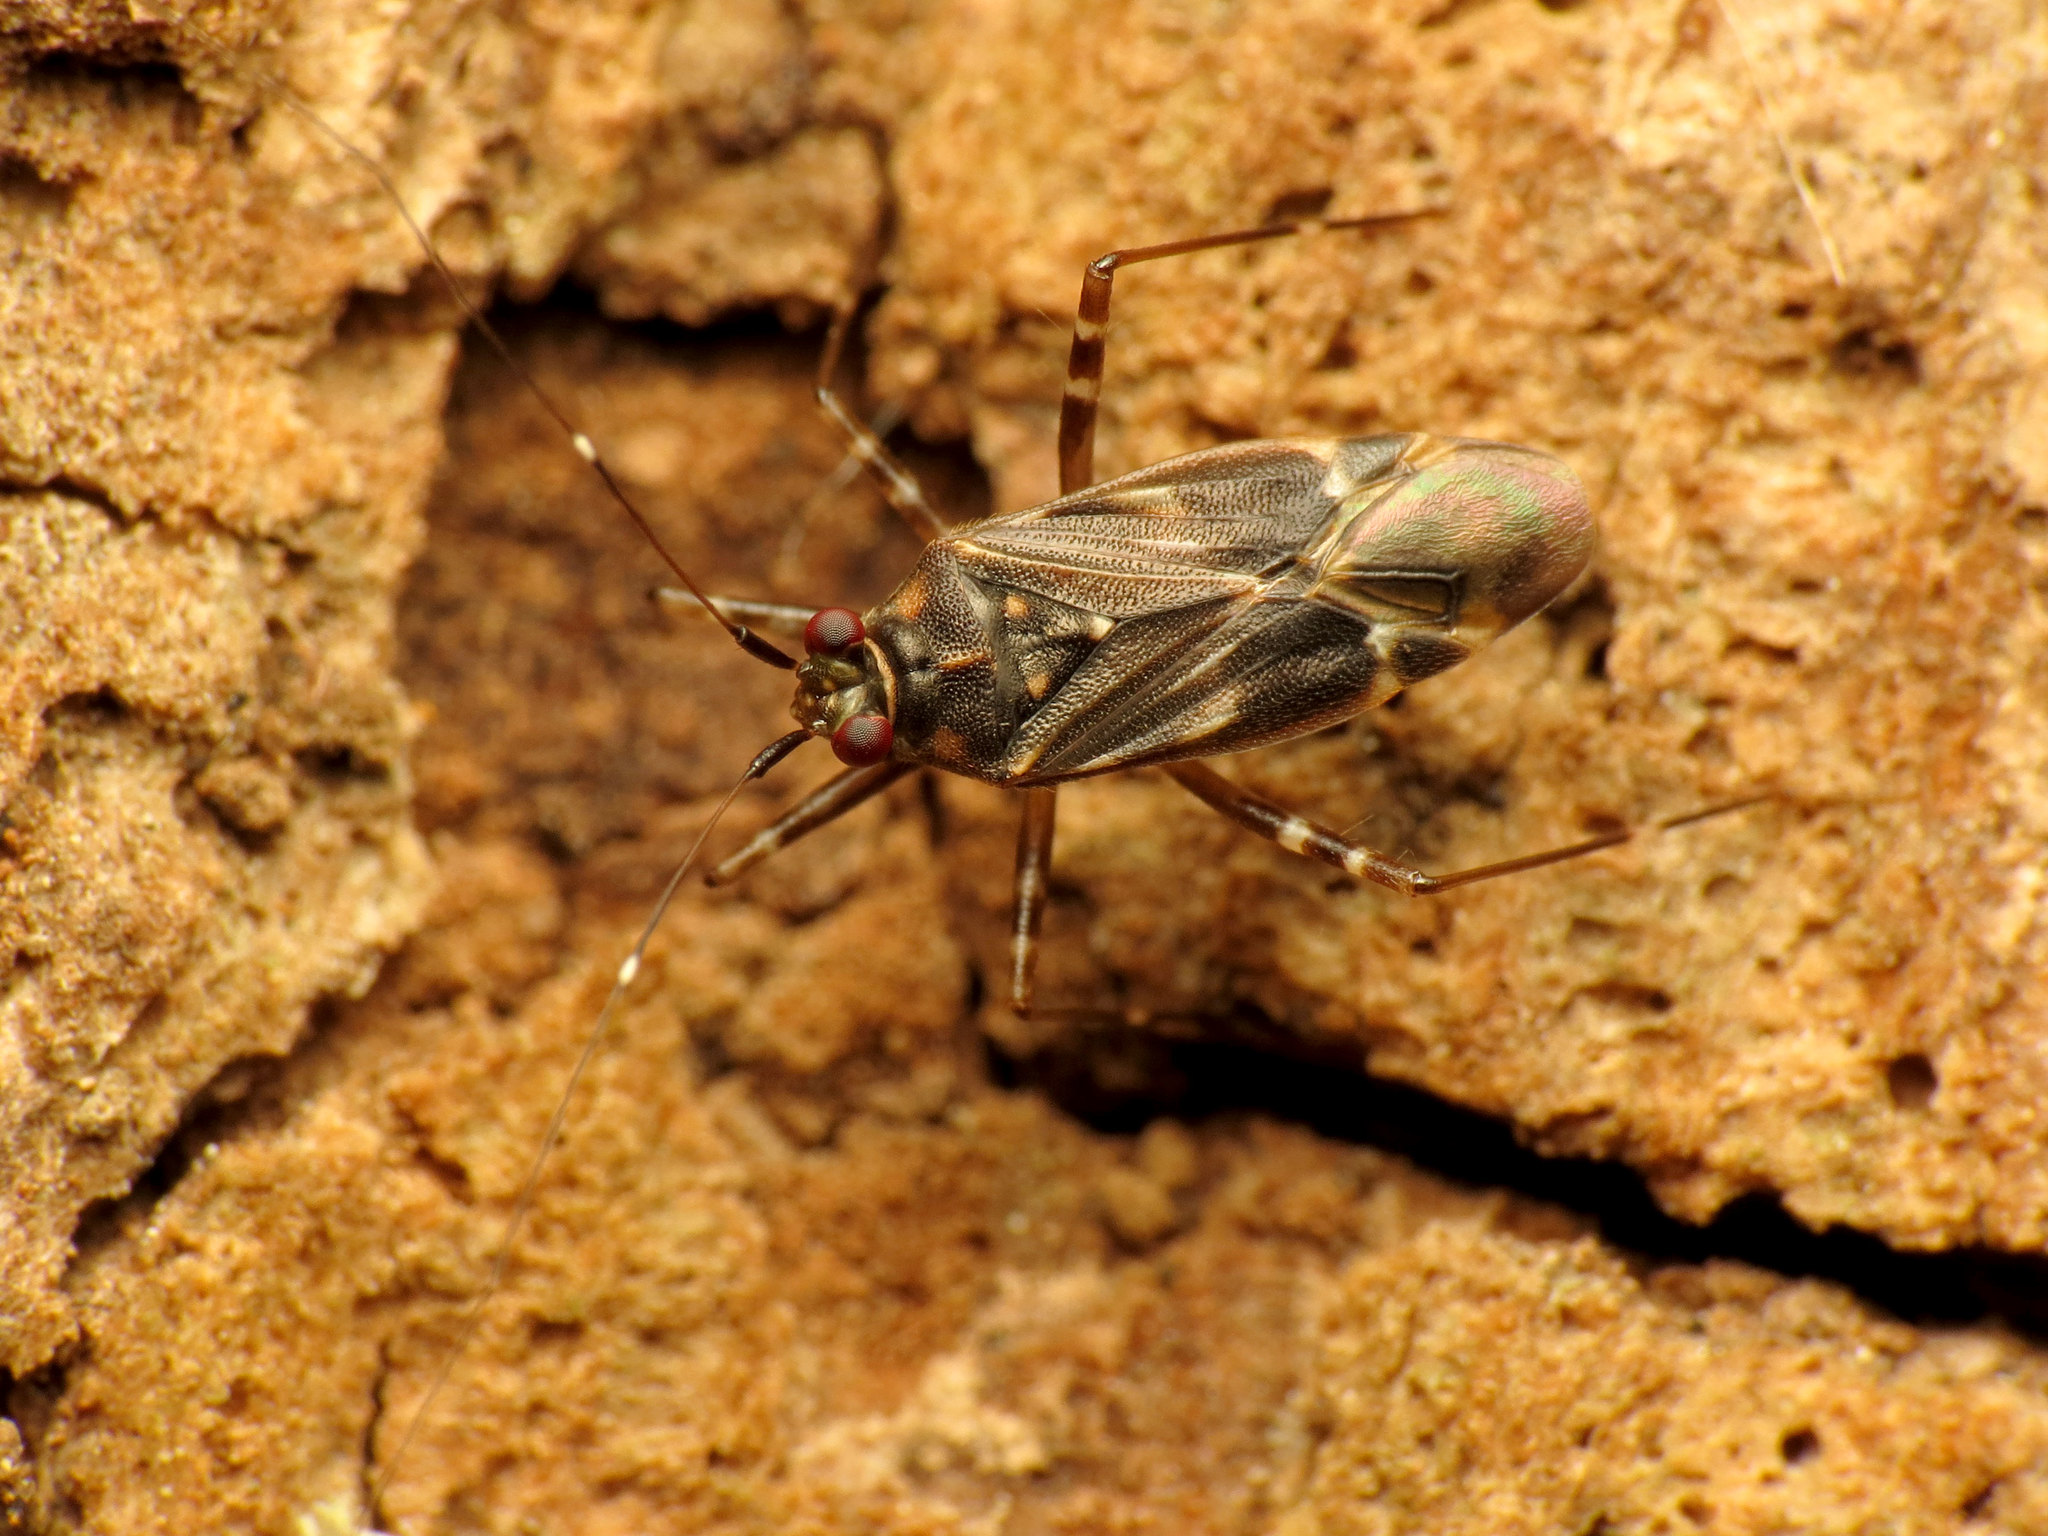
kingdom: Animalia
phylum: Arthropoda
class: Insecta
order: Hemiptera
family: Miridae
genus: Cylapus
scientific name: Cylapus tenuicornis
